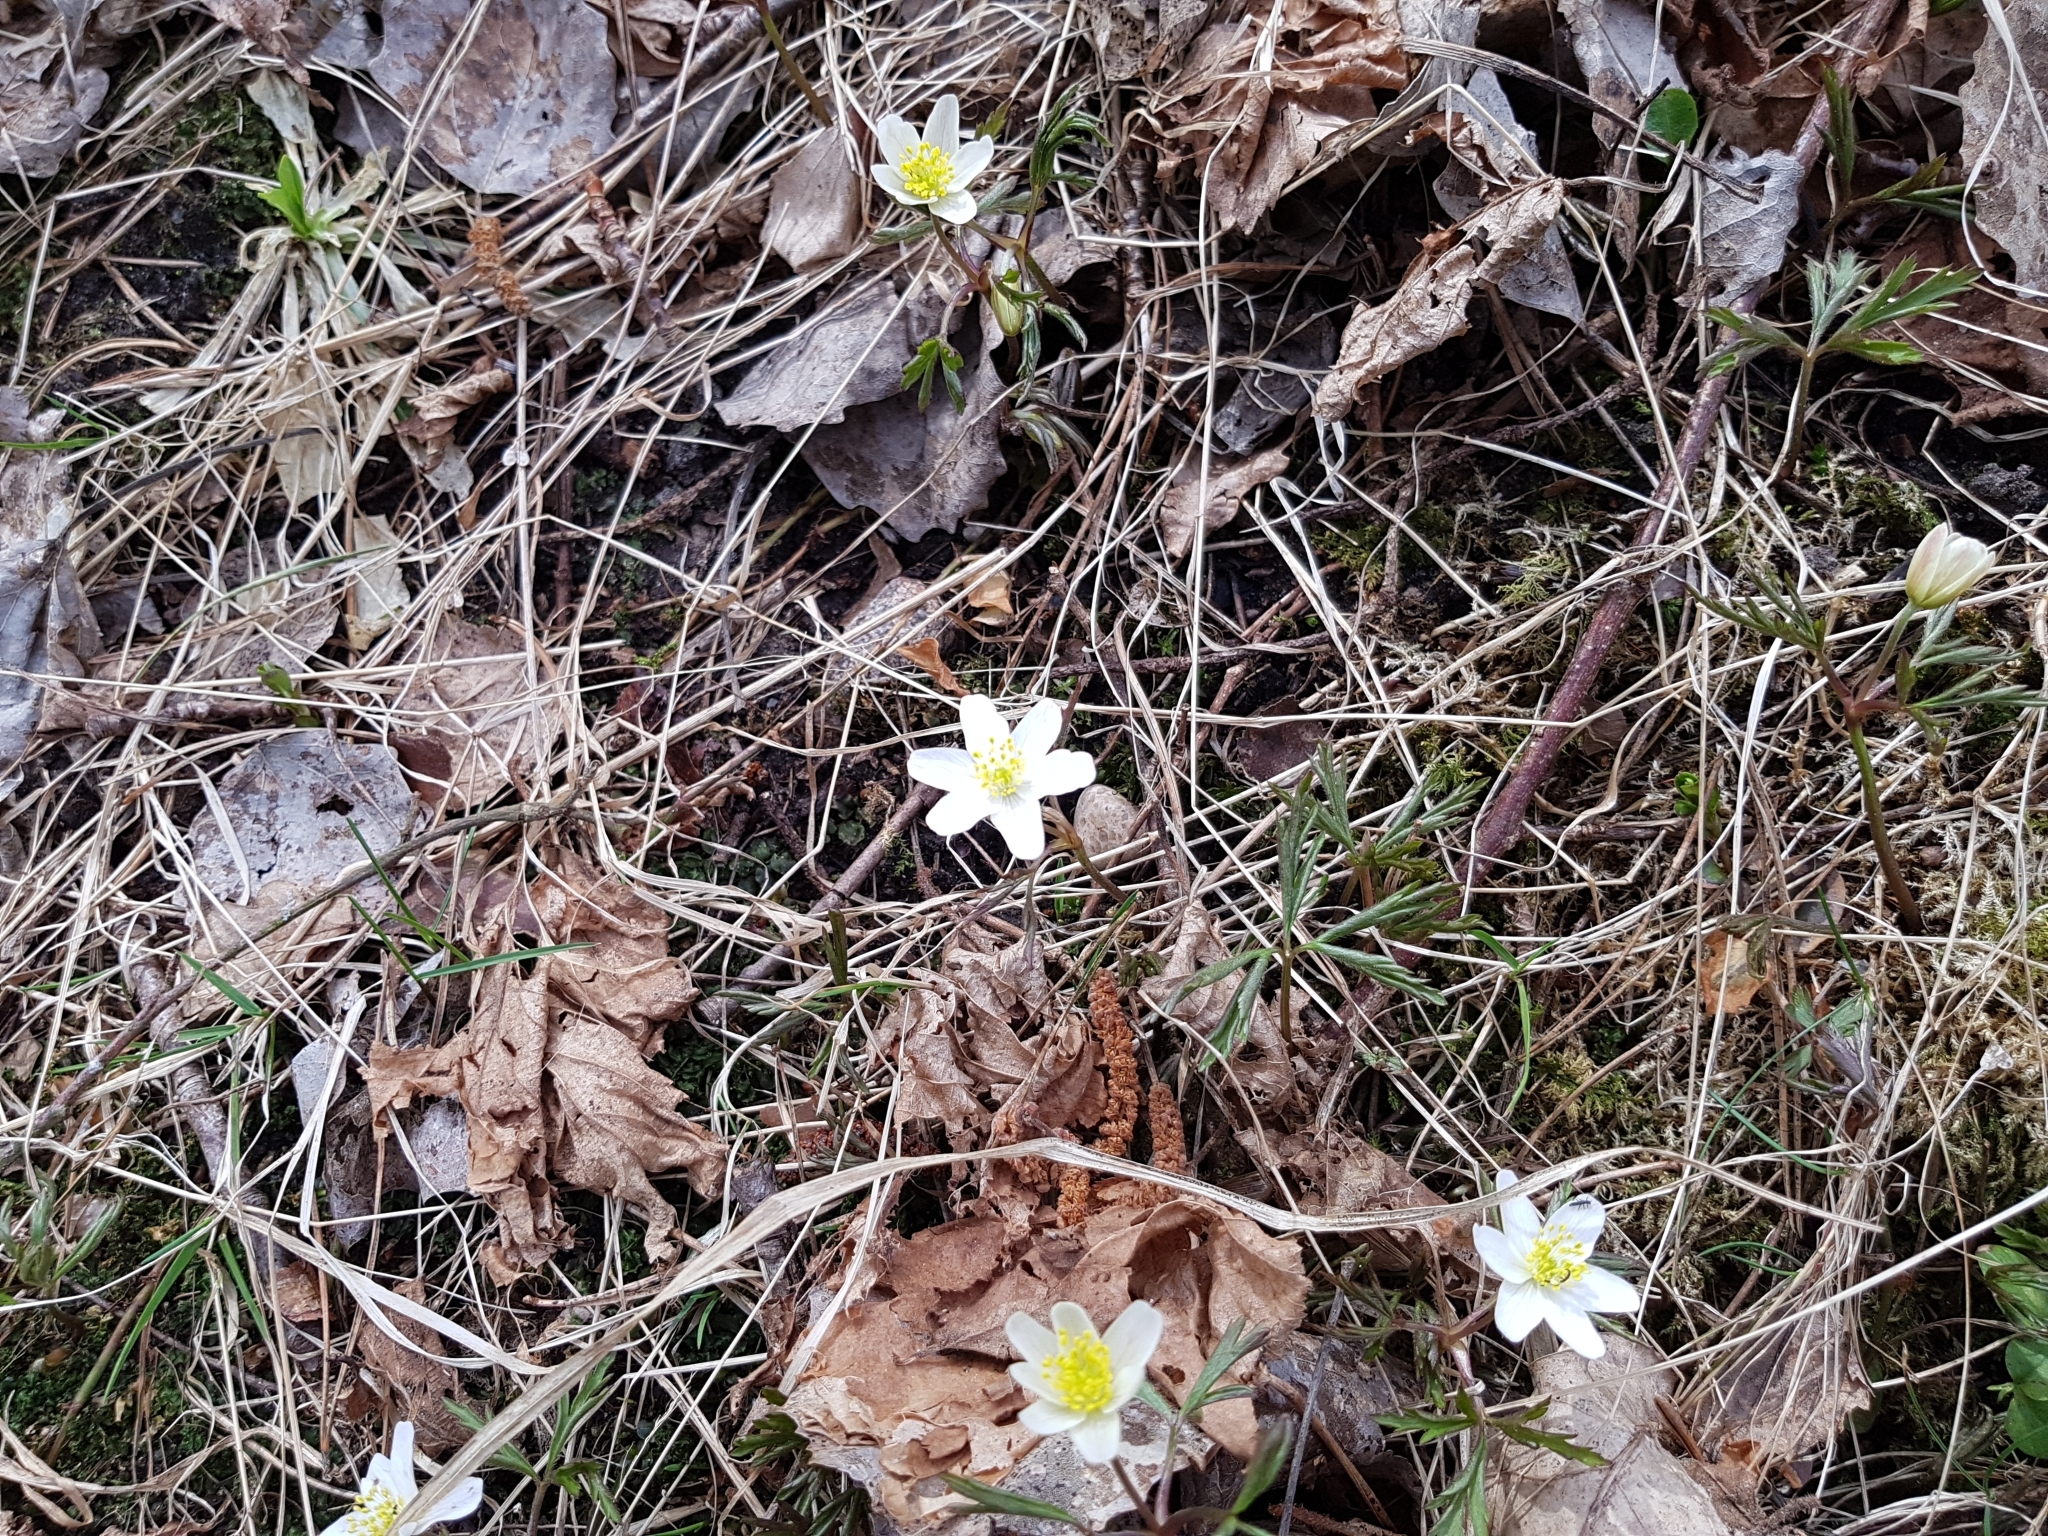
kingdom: Plantae
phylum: Tracheophyta
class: Magnoliopsida
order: Ranunculales
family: Ranunculaceae
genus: Anemone
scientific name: Anemone nemorosa
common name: Wood anemone
